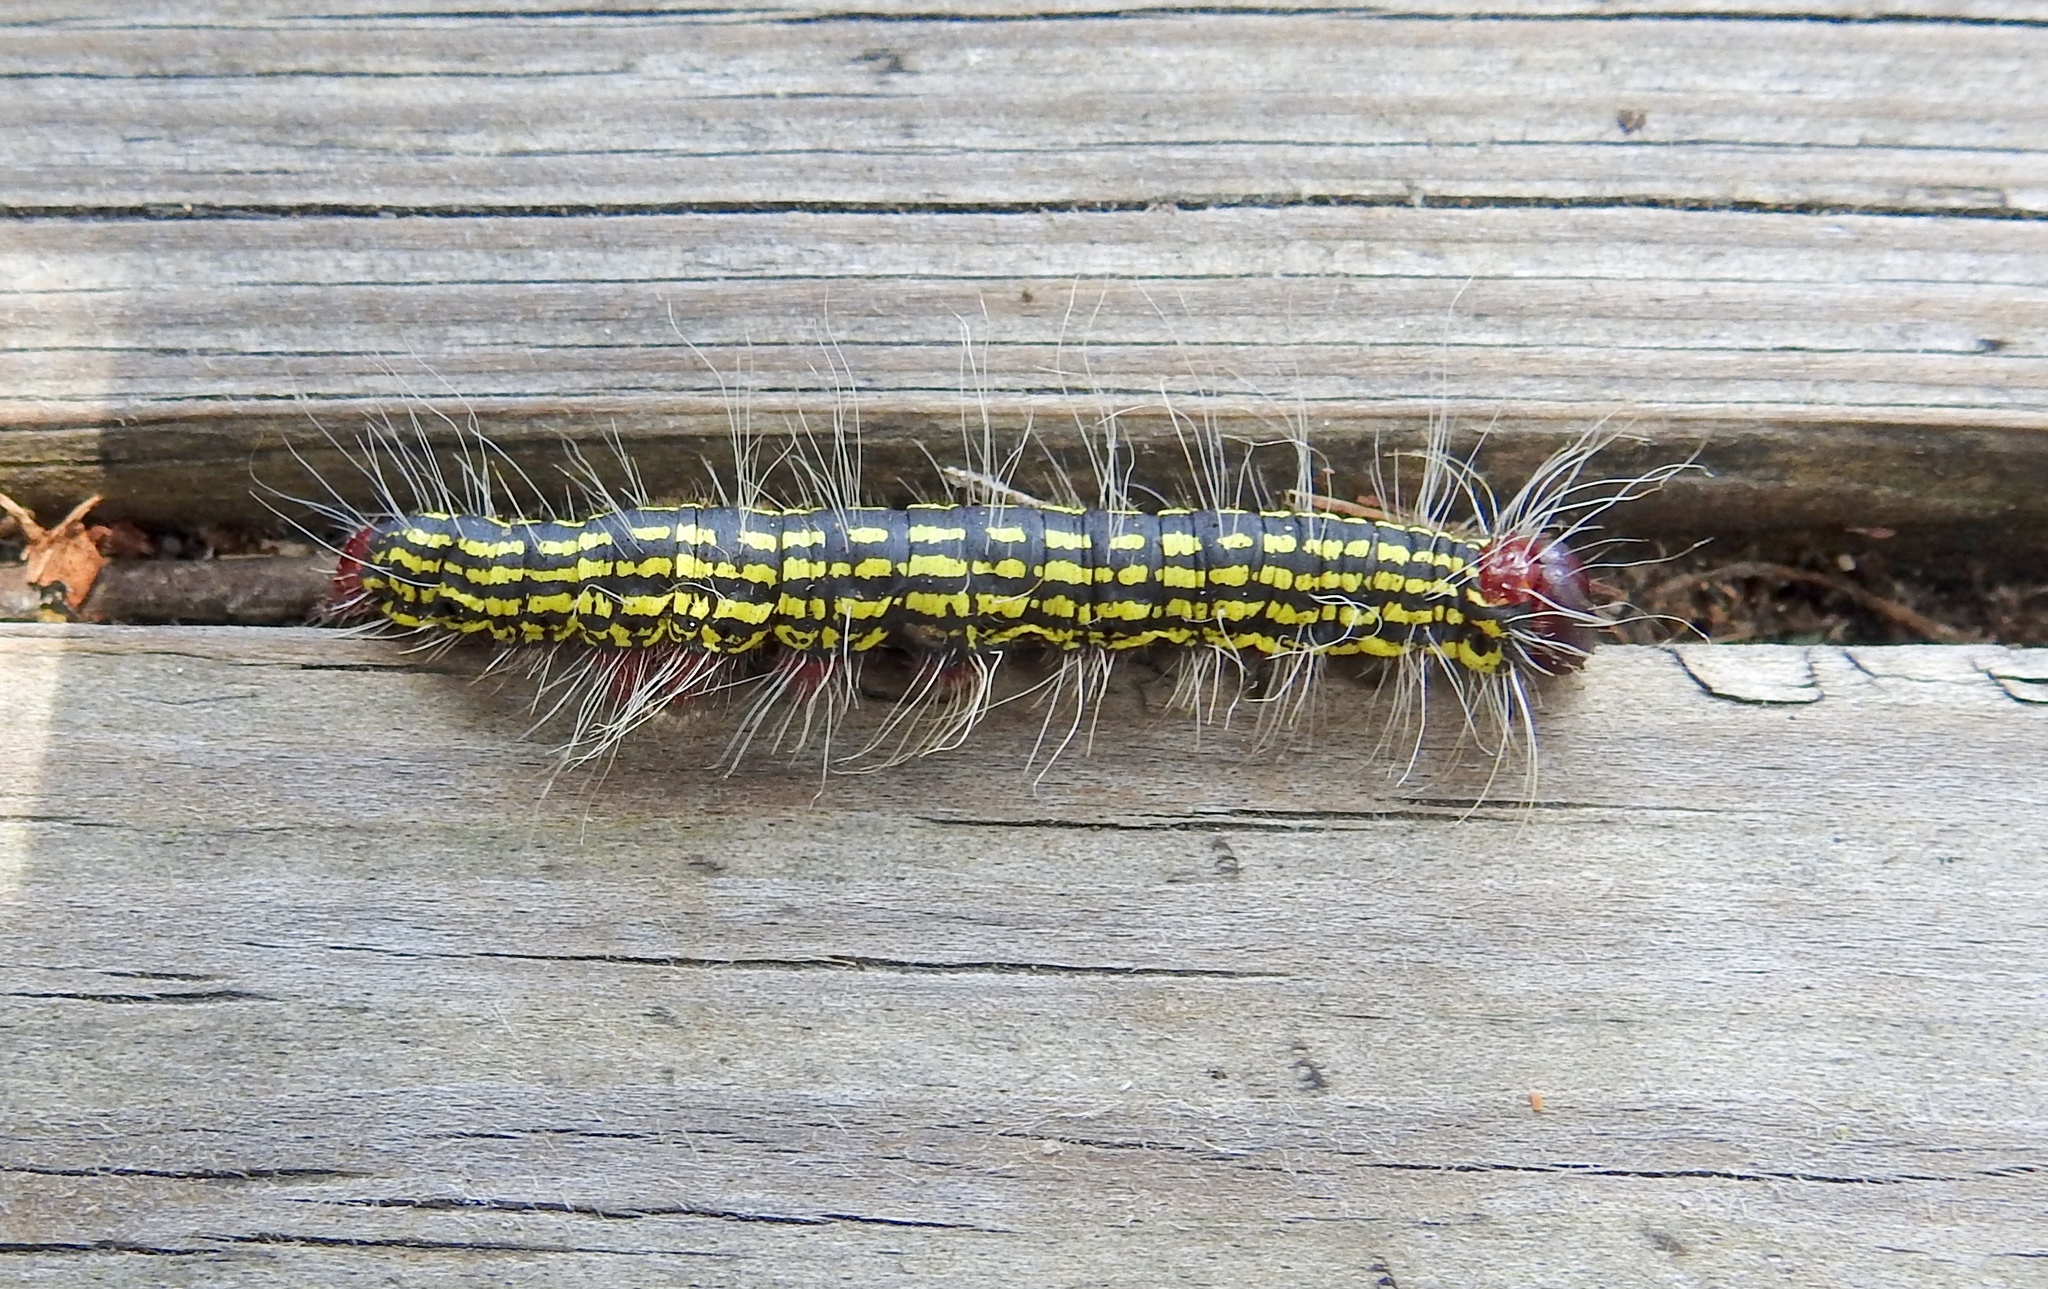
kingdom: Animalia
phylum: Arthropoda
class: Insecta
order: Lepidoptera
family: Notodontidae
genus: Datana
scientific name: Datana major
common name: Azalea caterpillar
